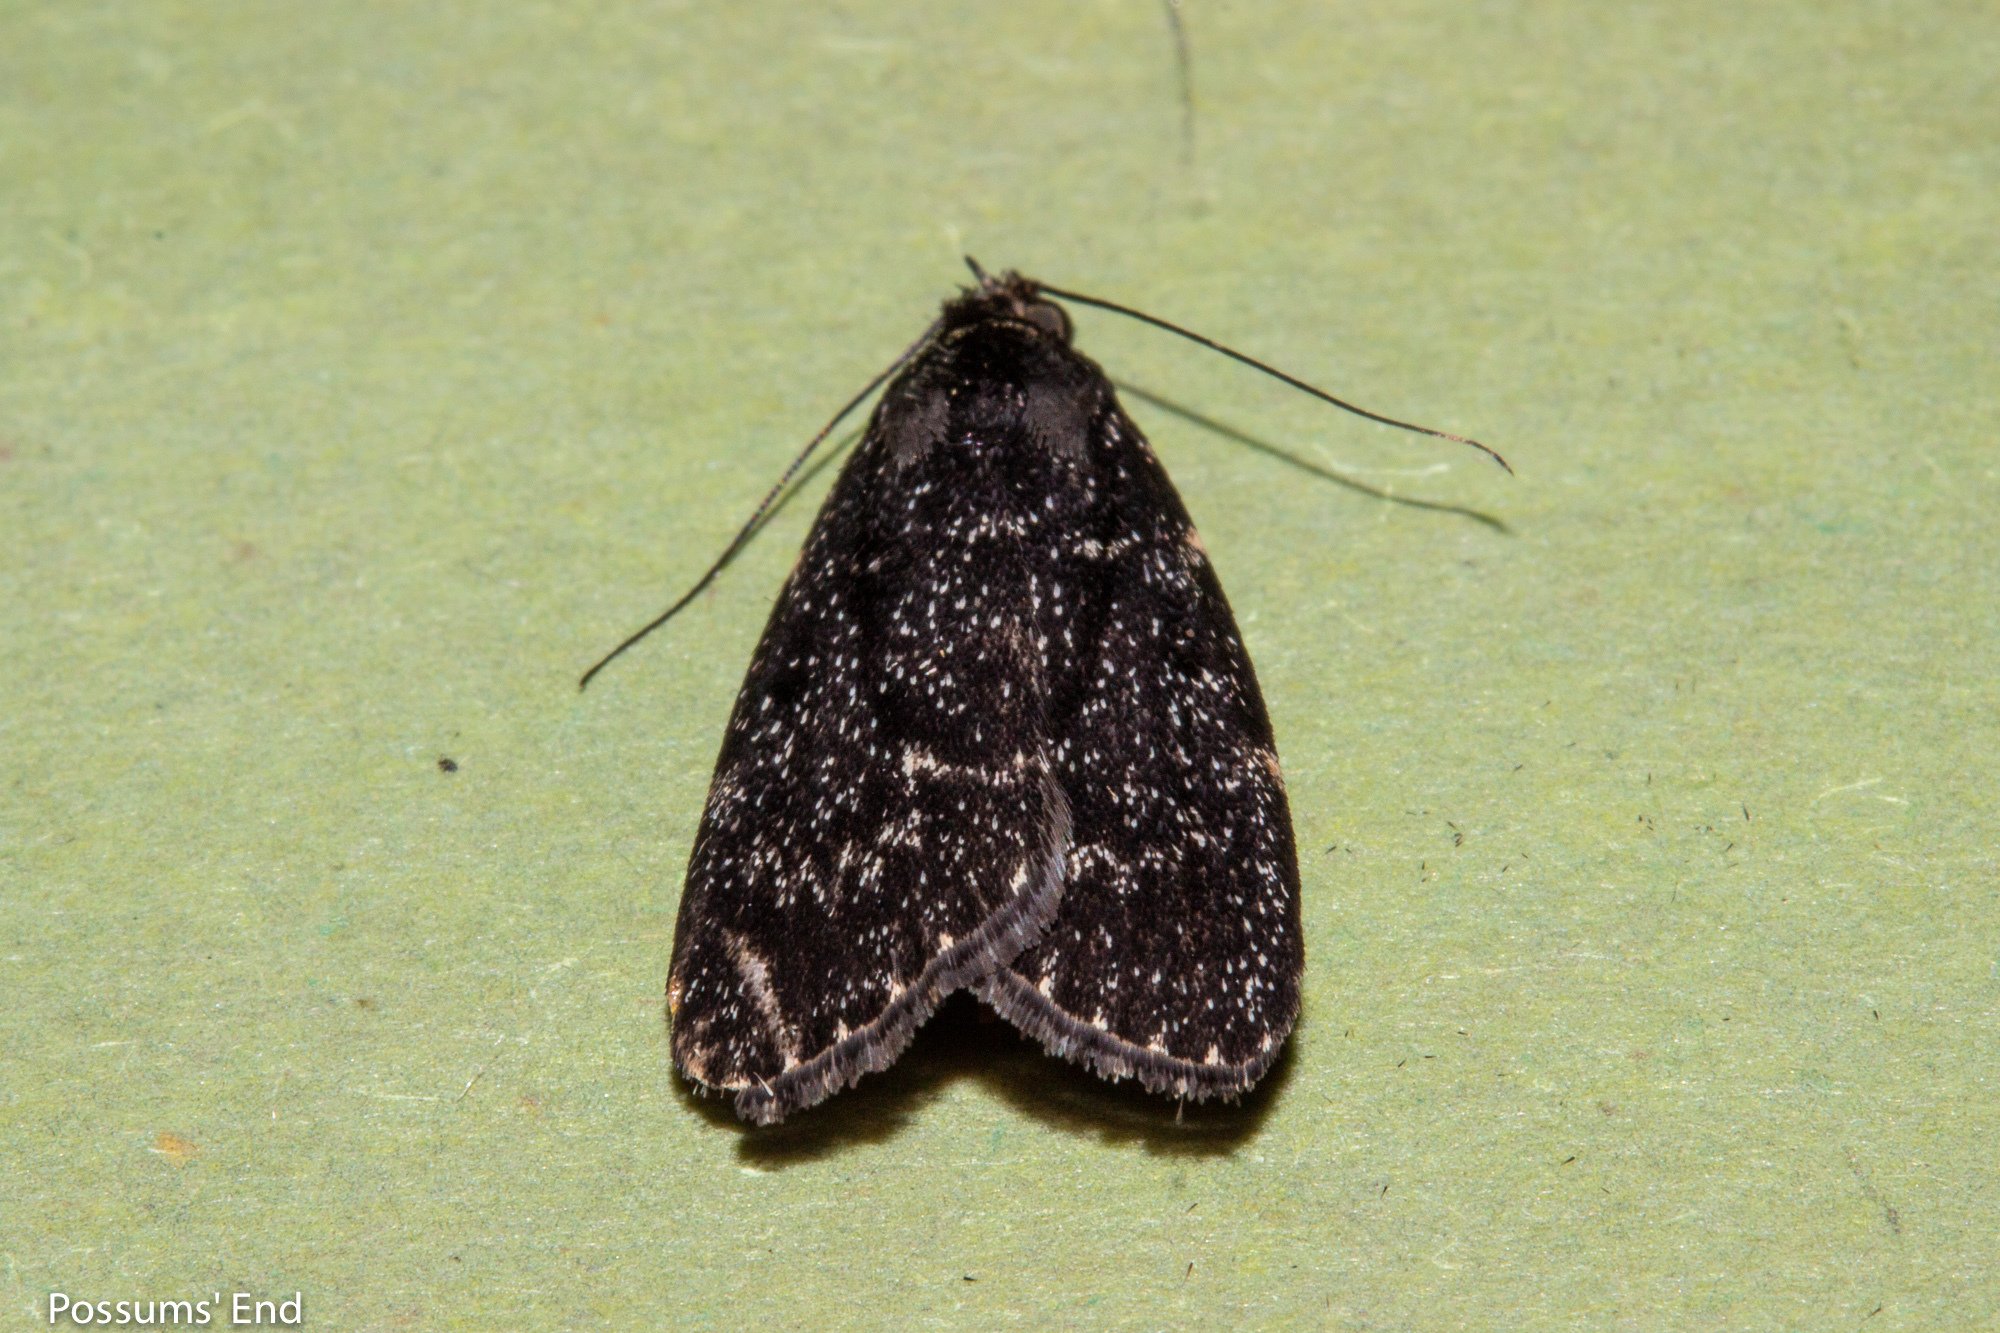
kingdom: Animalia
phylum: Arthropoda
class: Insecta
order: Lepidoptera
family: Pyralidae
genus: Stericta
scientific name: Stericta carbonalis
